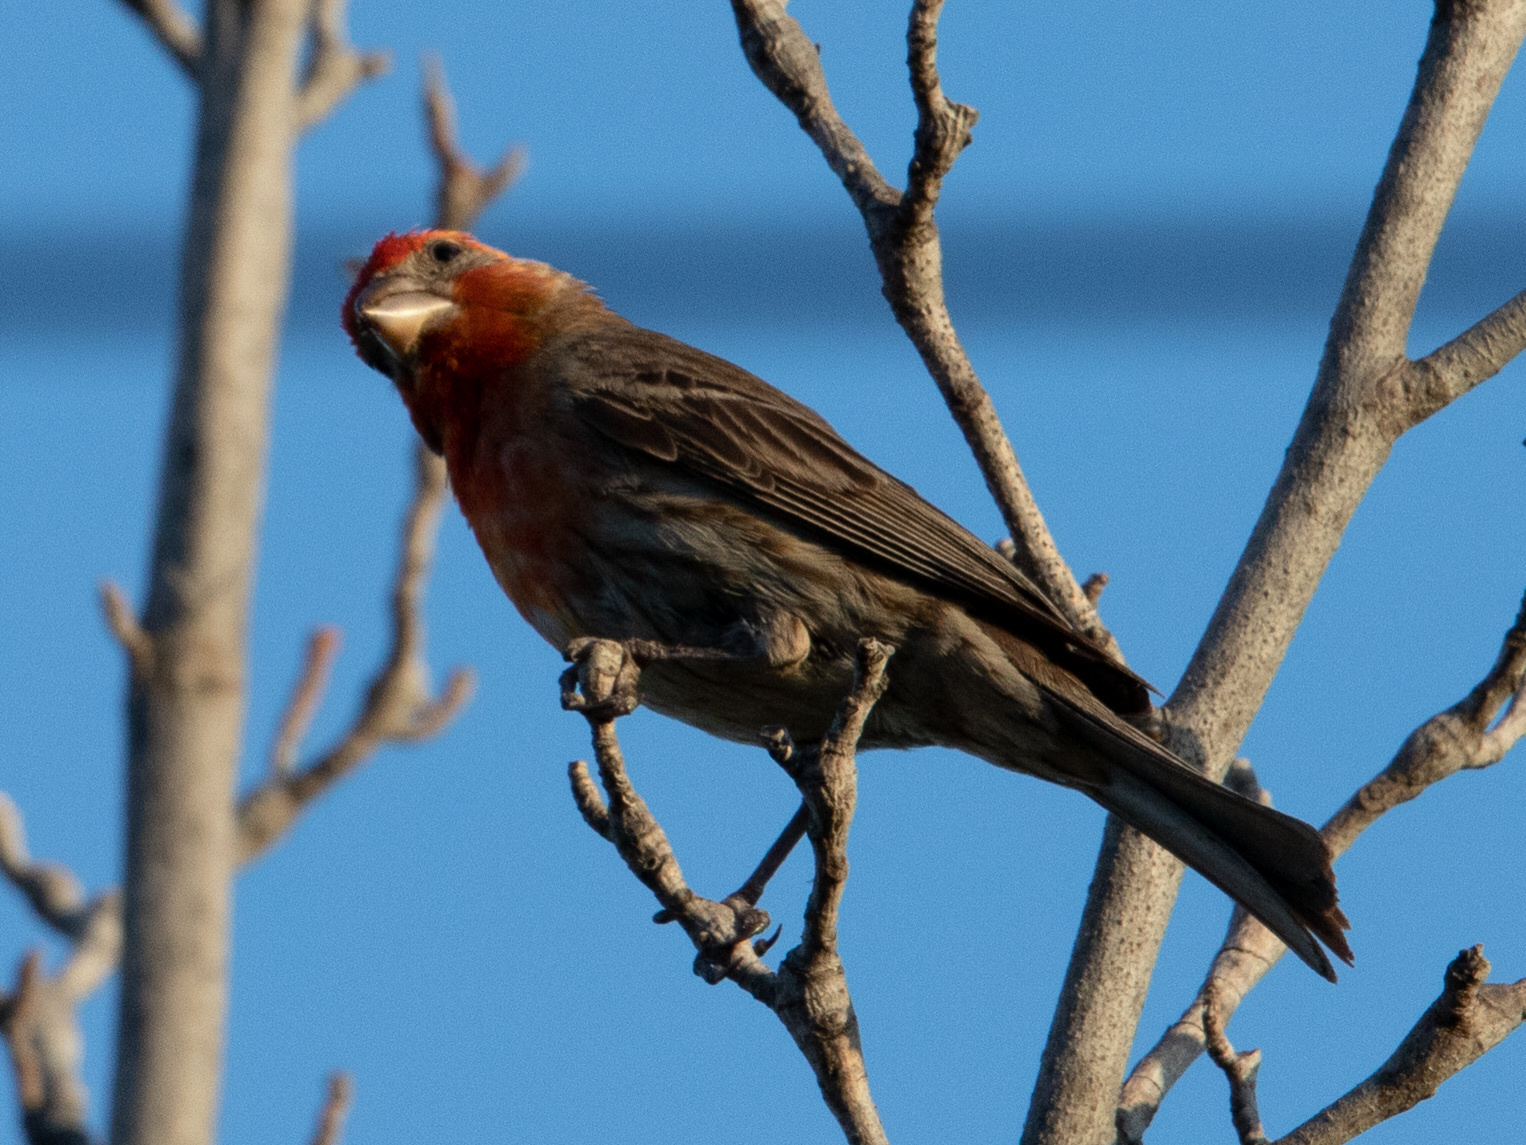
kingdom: Animalia
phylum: Chordata
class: Aves
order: Passeriformes
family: Fringillidae
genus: Haemorhous
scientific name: Haemorhous mexicanus
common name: House finch
